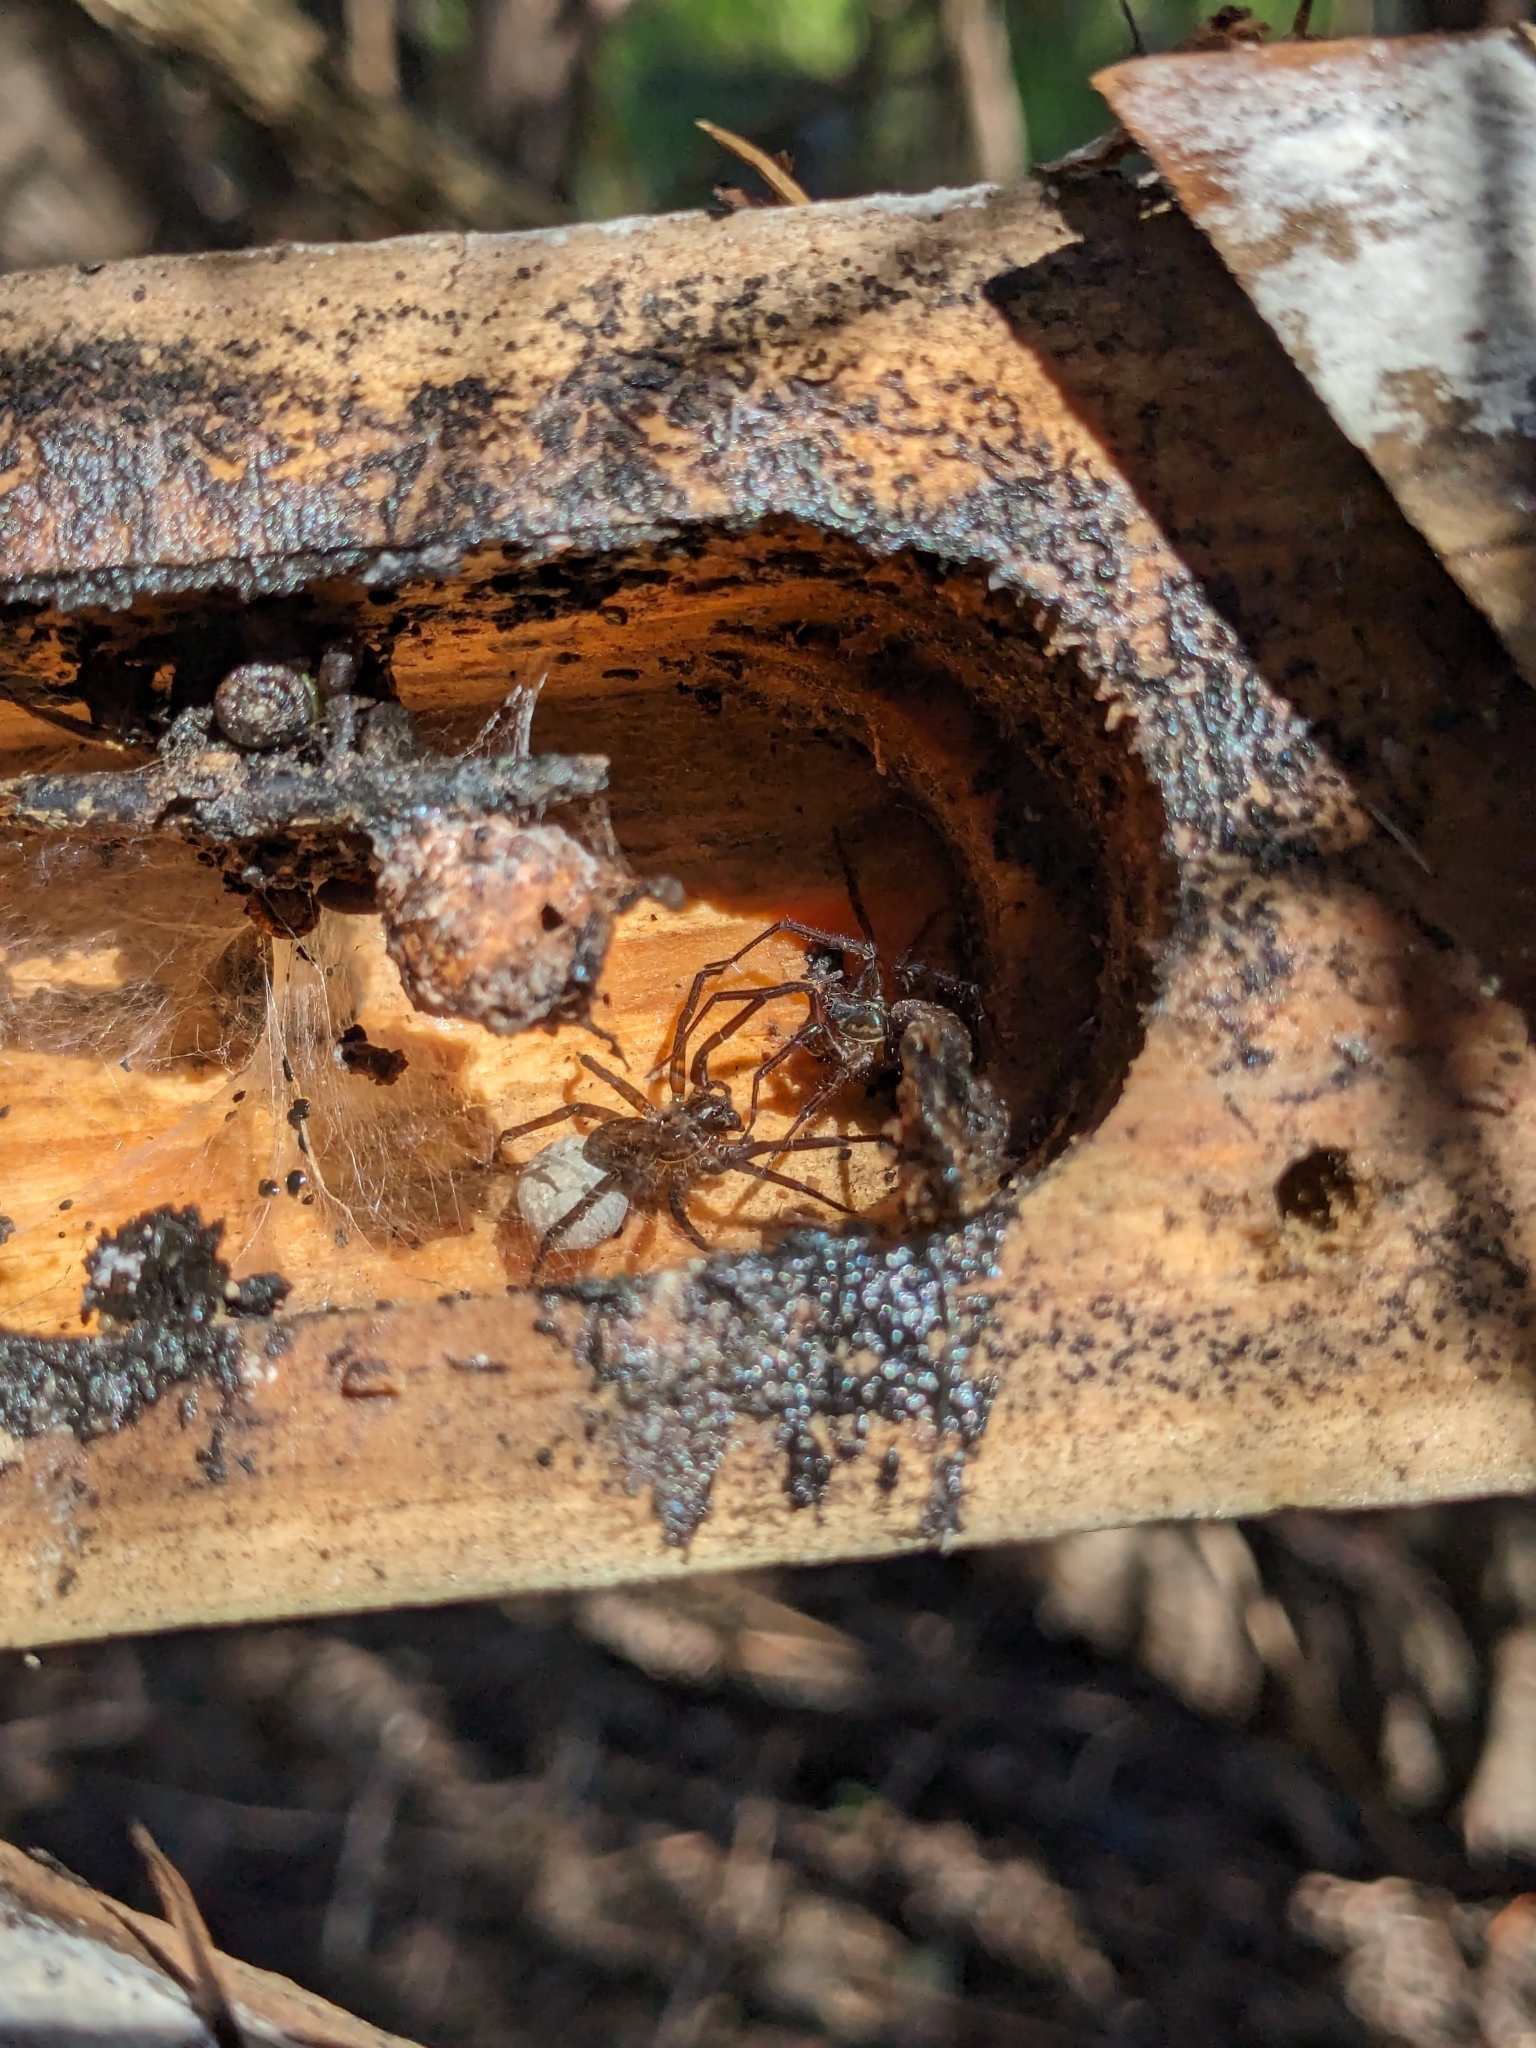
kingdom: Animalia
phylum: Arthropoda
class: Arachnida
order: Araneae
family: Lycosidae
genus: Allotrochosina
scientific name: Allotrochosina schauinslandi
